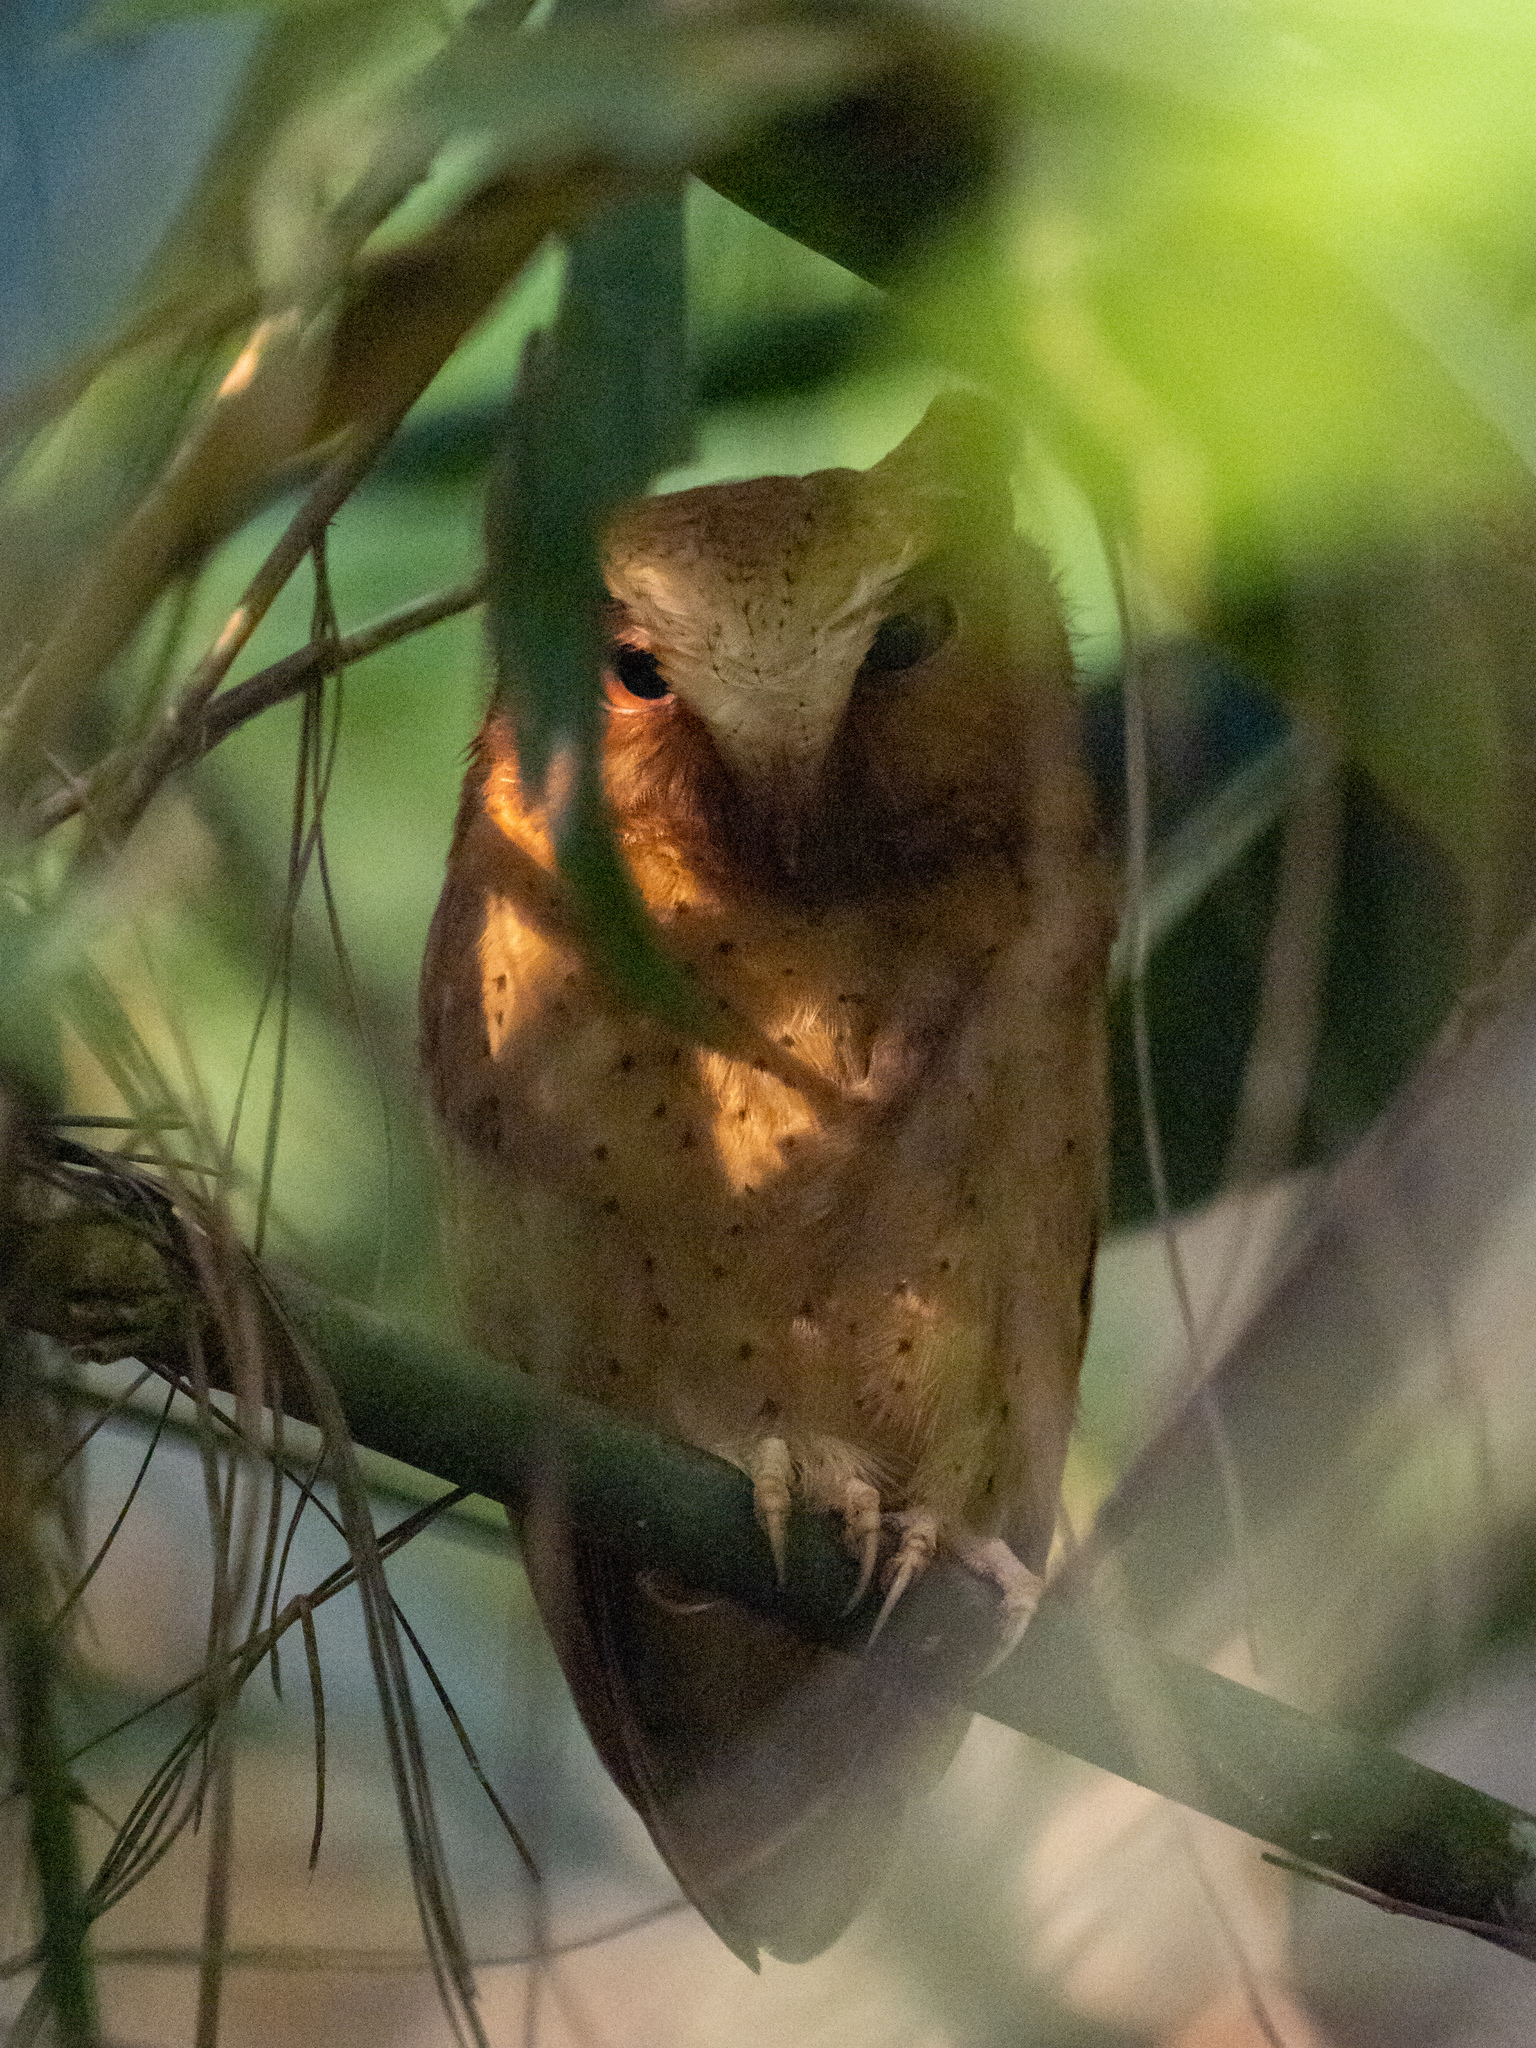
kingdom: Animalia
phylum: Chordata
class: Aves
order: Strigiformes
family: Strigidae
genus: Otus
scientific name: Otus thilohoffmanni
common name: Serendib scops owl
